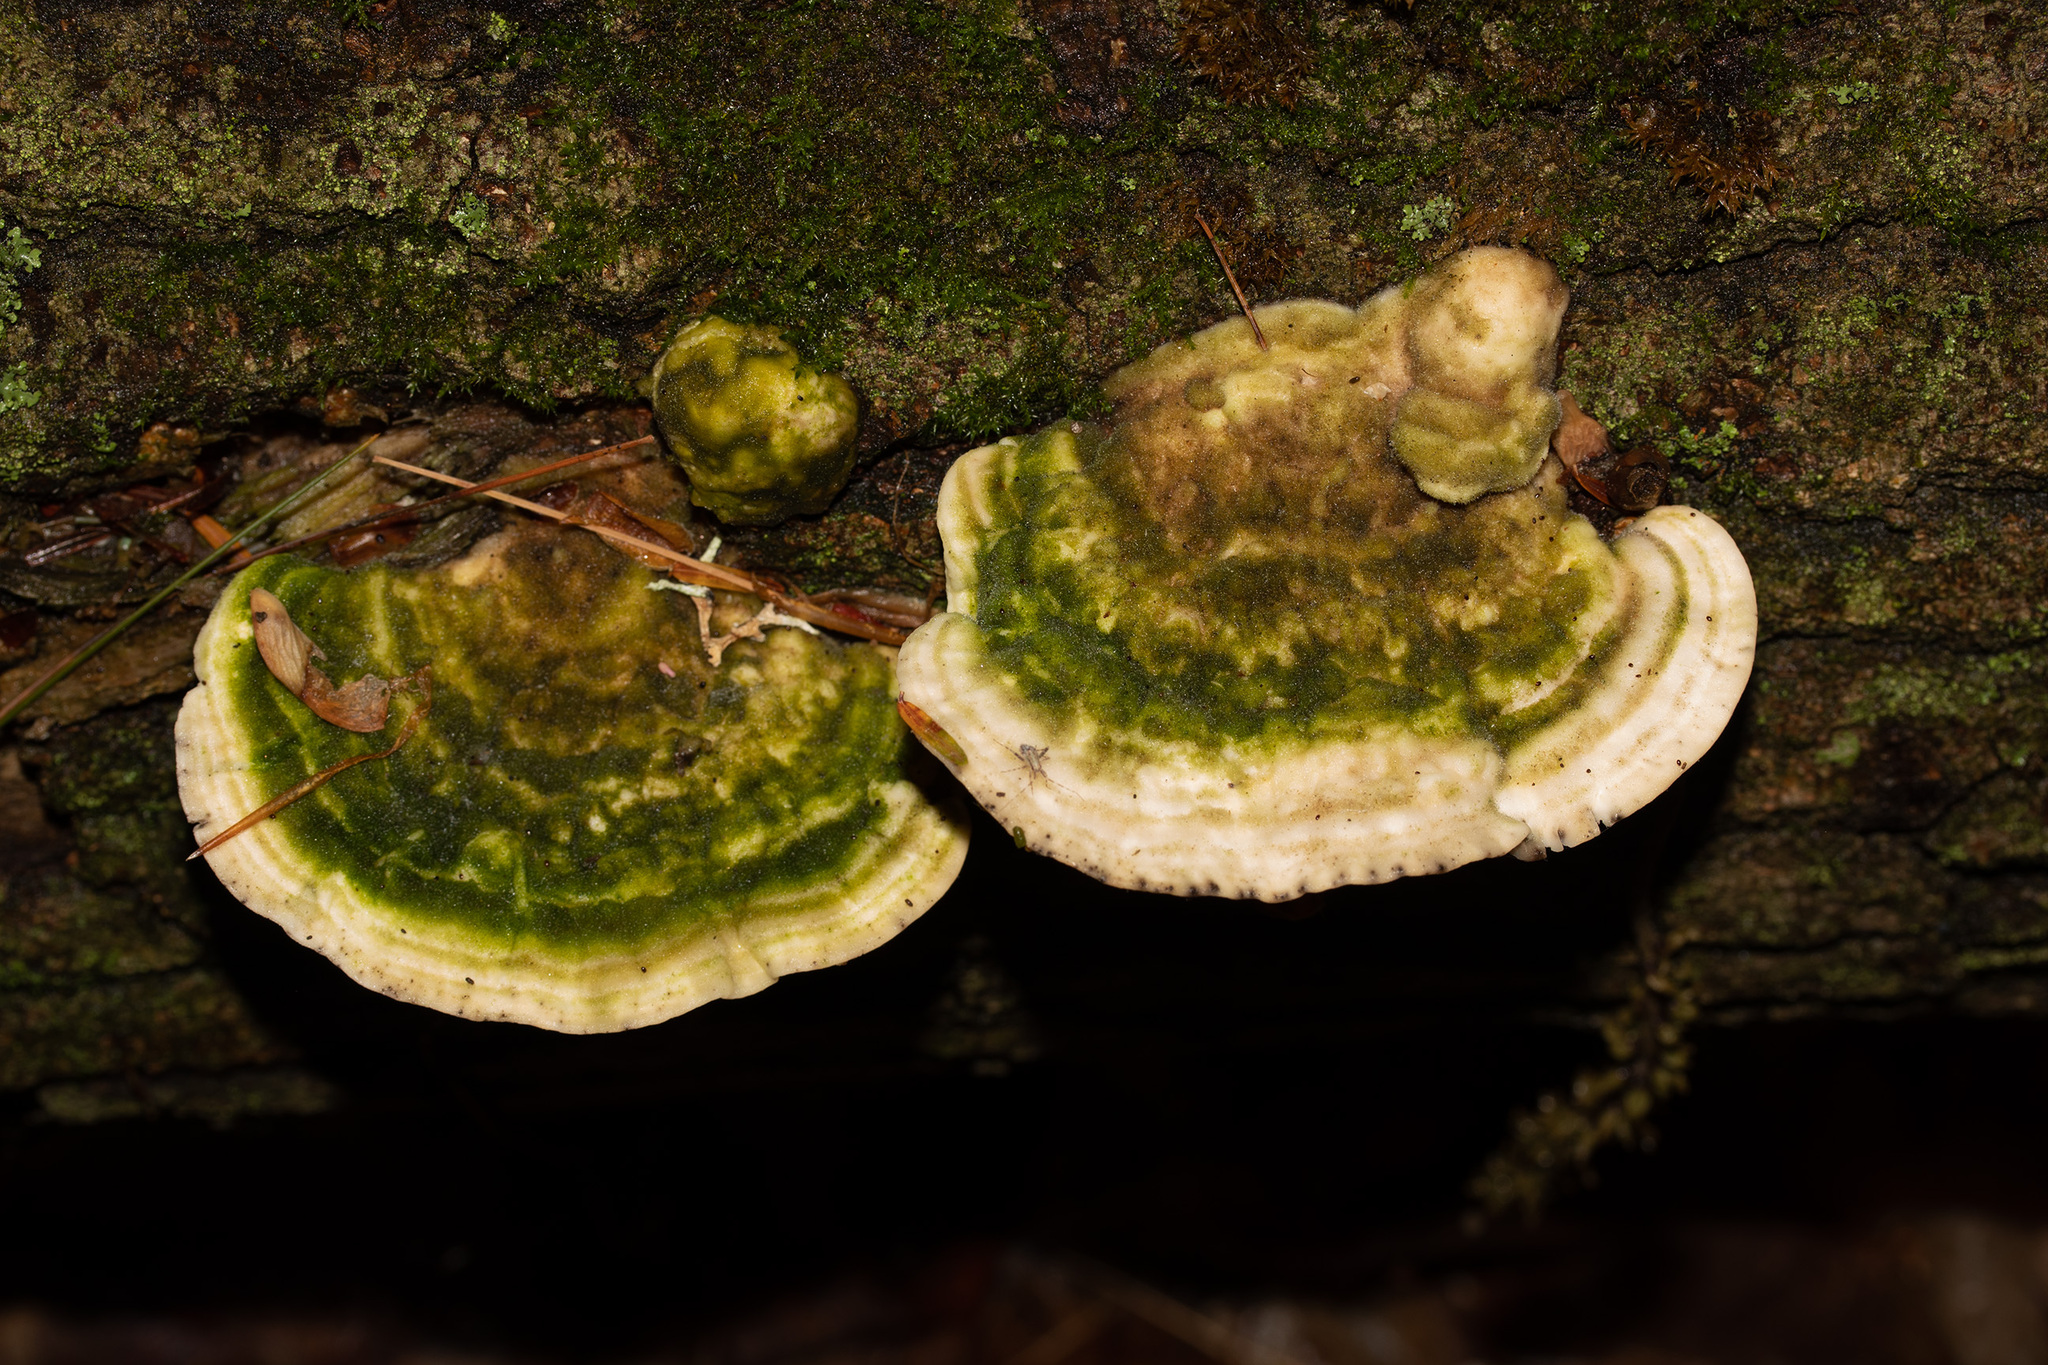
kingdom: Fungi
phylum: Basidiomycota
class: Agaricomycetes
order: Polyporales
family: Polyporaceae
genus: Trametes
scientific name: Trametes gibbosa
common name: Lumpy bracket
